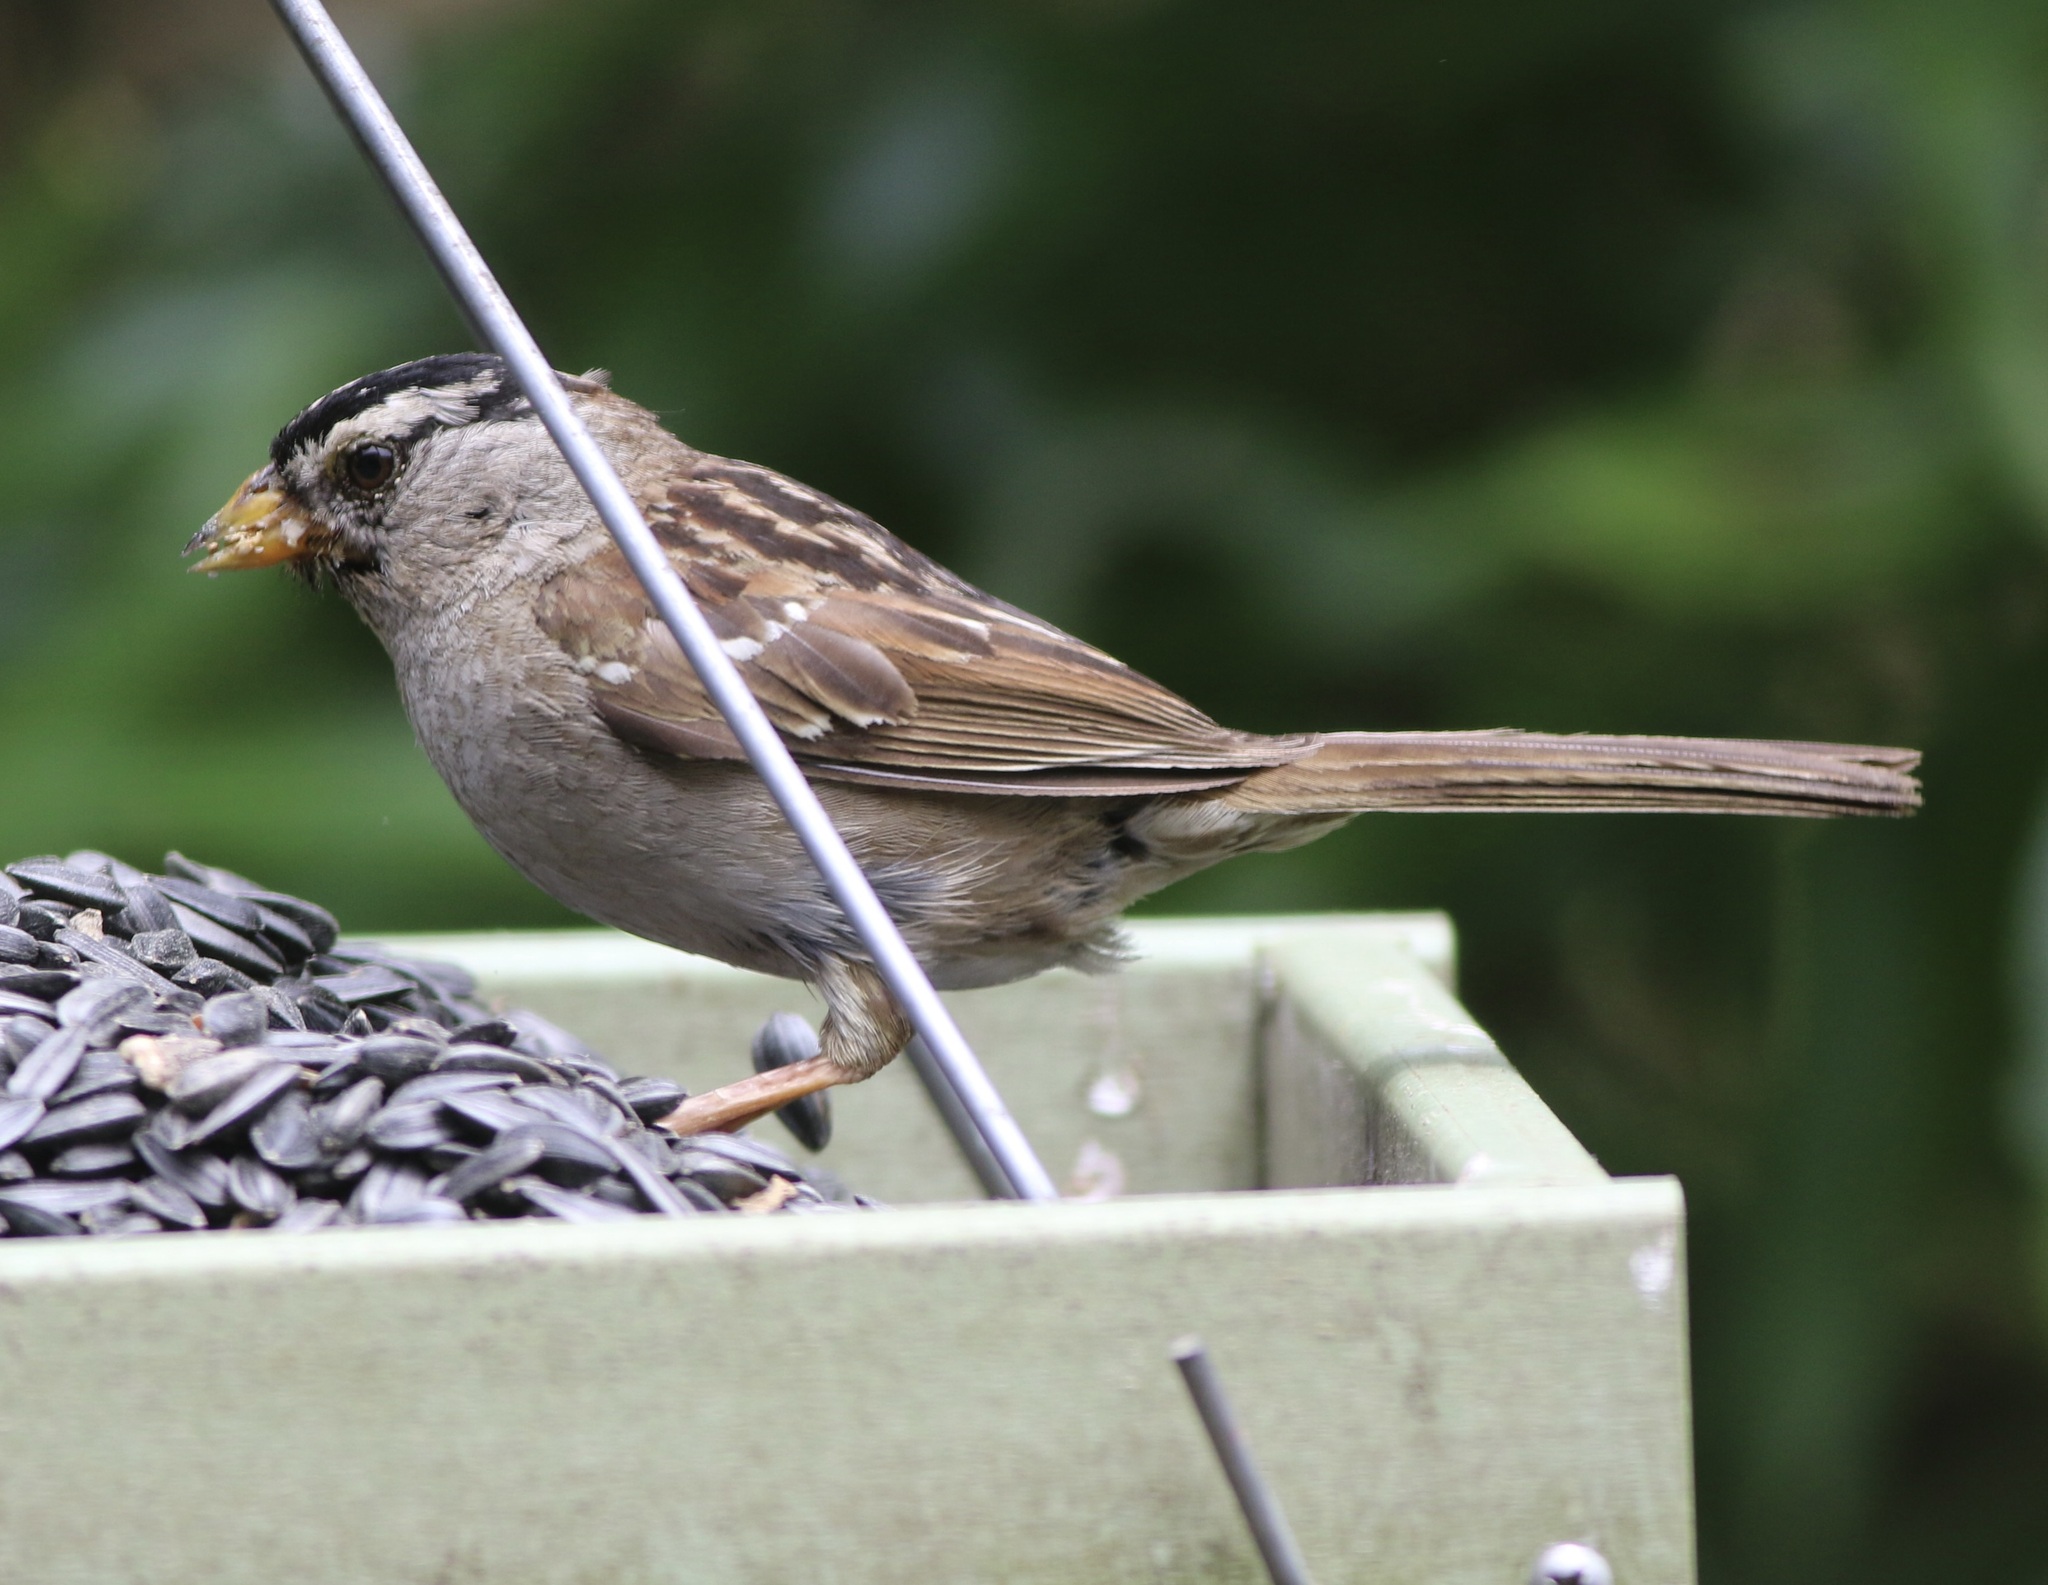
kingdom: Animalia
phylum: Chordata
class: Aves
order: Passeriformes
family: Passerellidae
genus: Zonotrichia
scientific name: Zonotrichia leucophrys
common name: White-crowned sparrow
